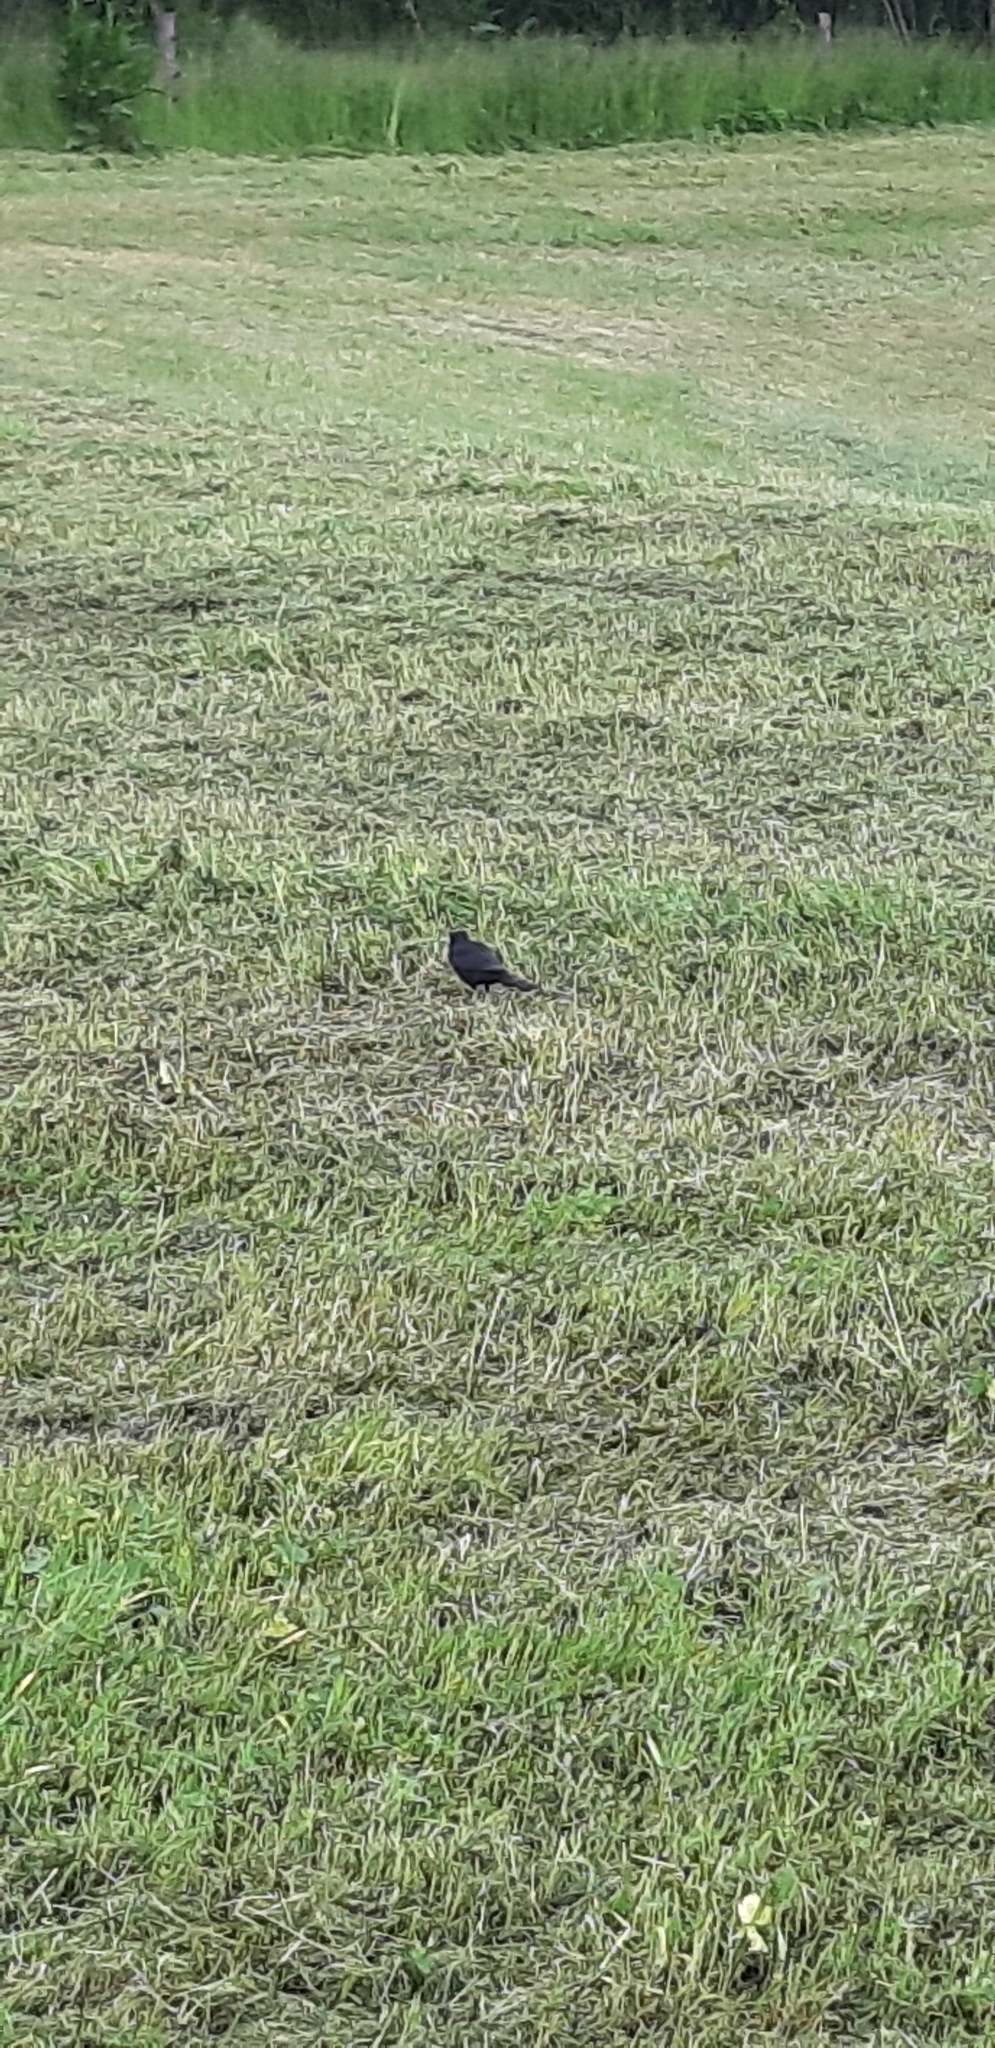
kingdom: Animalia
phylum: Chordata
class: Aves
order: Passeriformes
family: Turdidae
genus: Turdus
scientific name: Turdus merula
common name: Common blackbird
